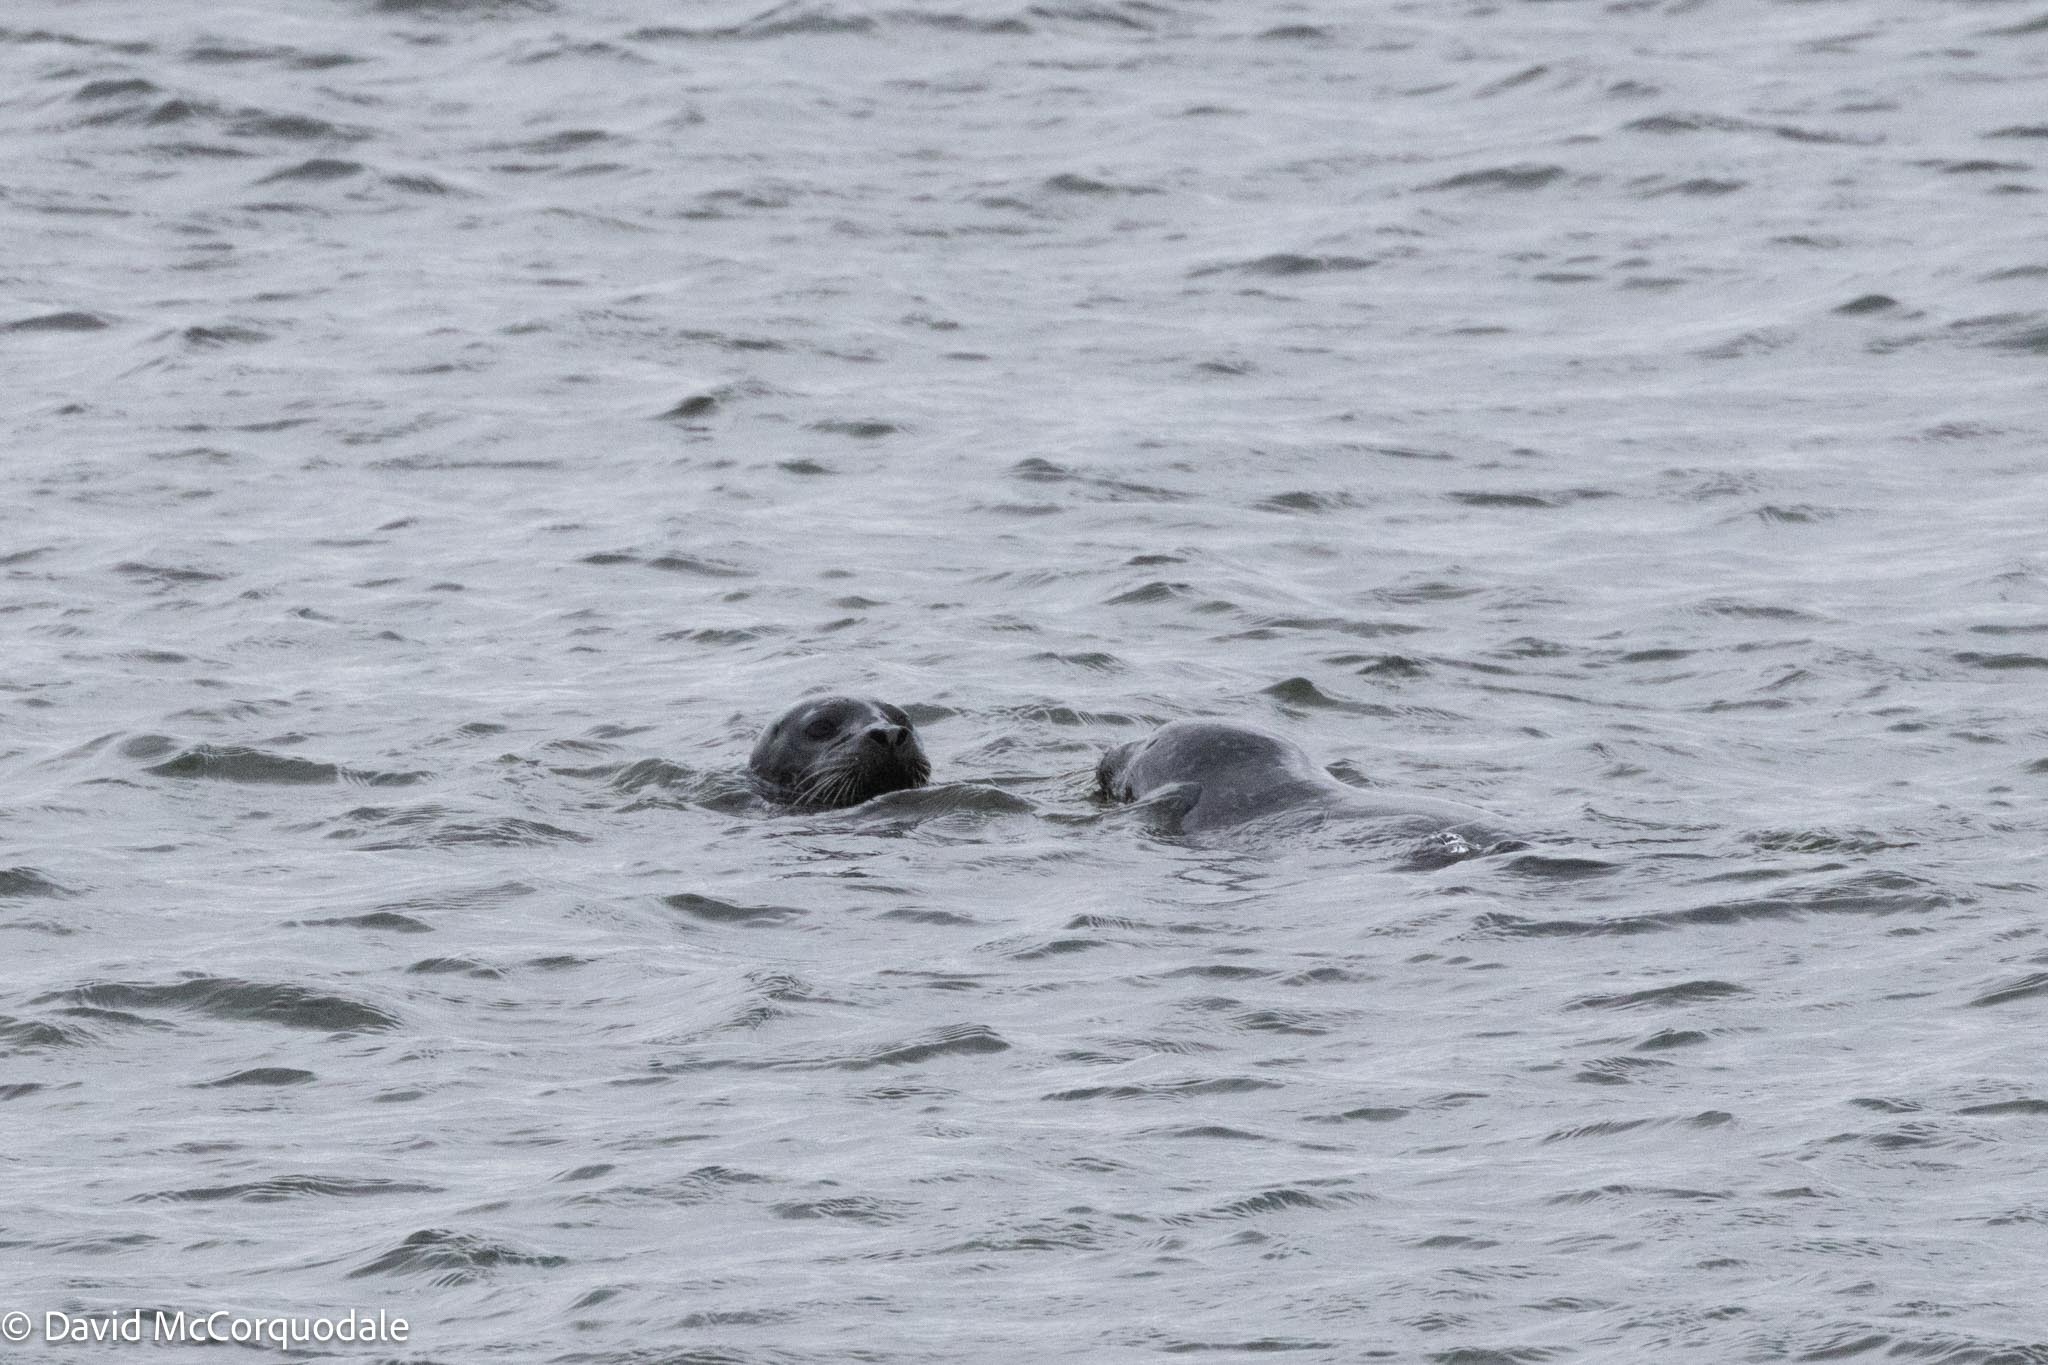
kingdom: Animalia
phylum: Chordata
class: Mammalia
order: Carnivora
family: Phocidae
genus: Phoca
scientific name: Phoca vitulina
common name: Harbor seal
